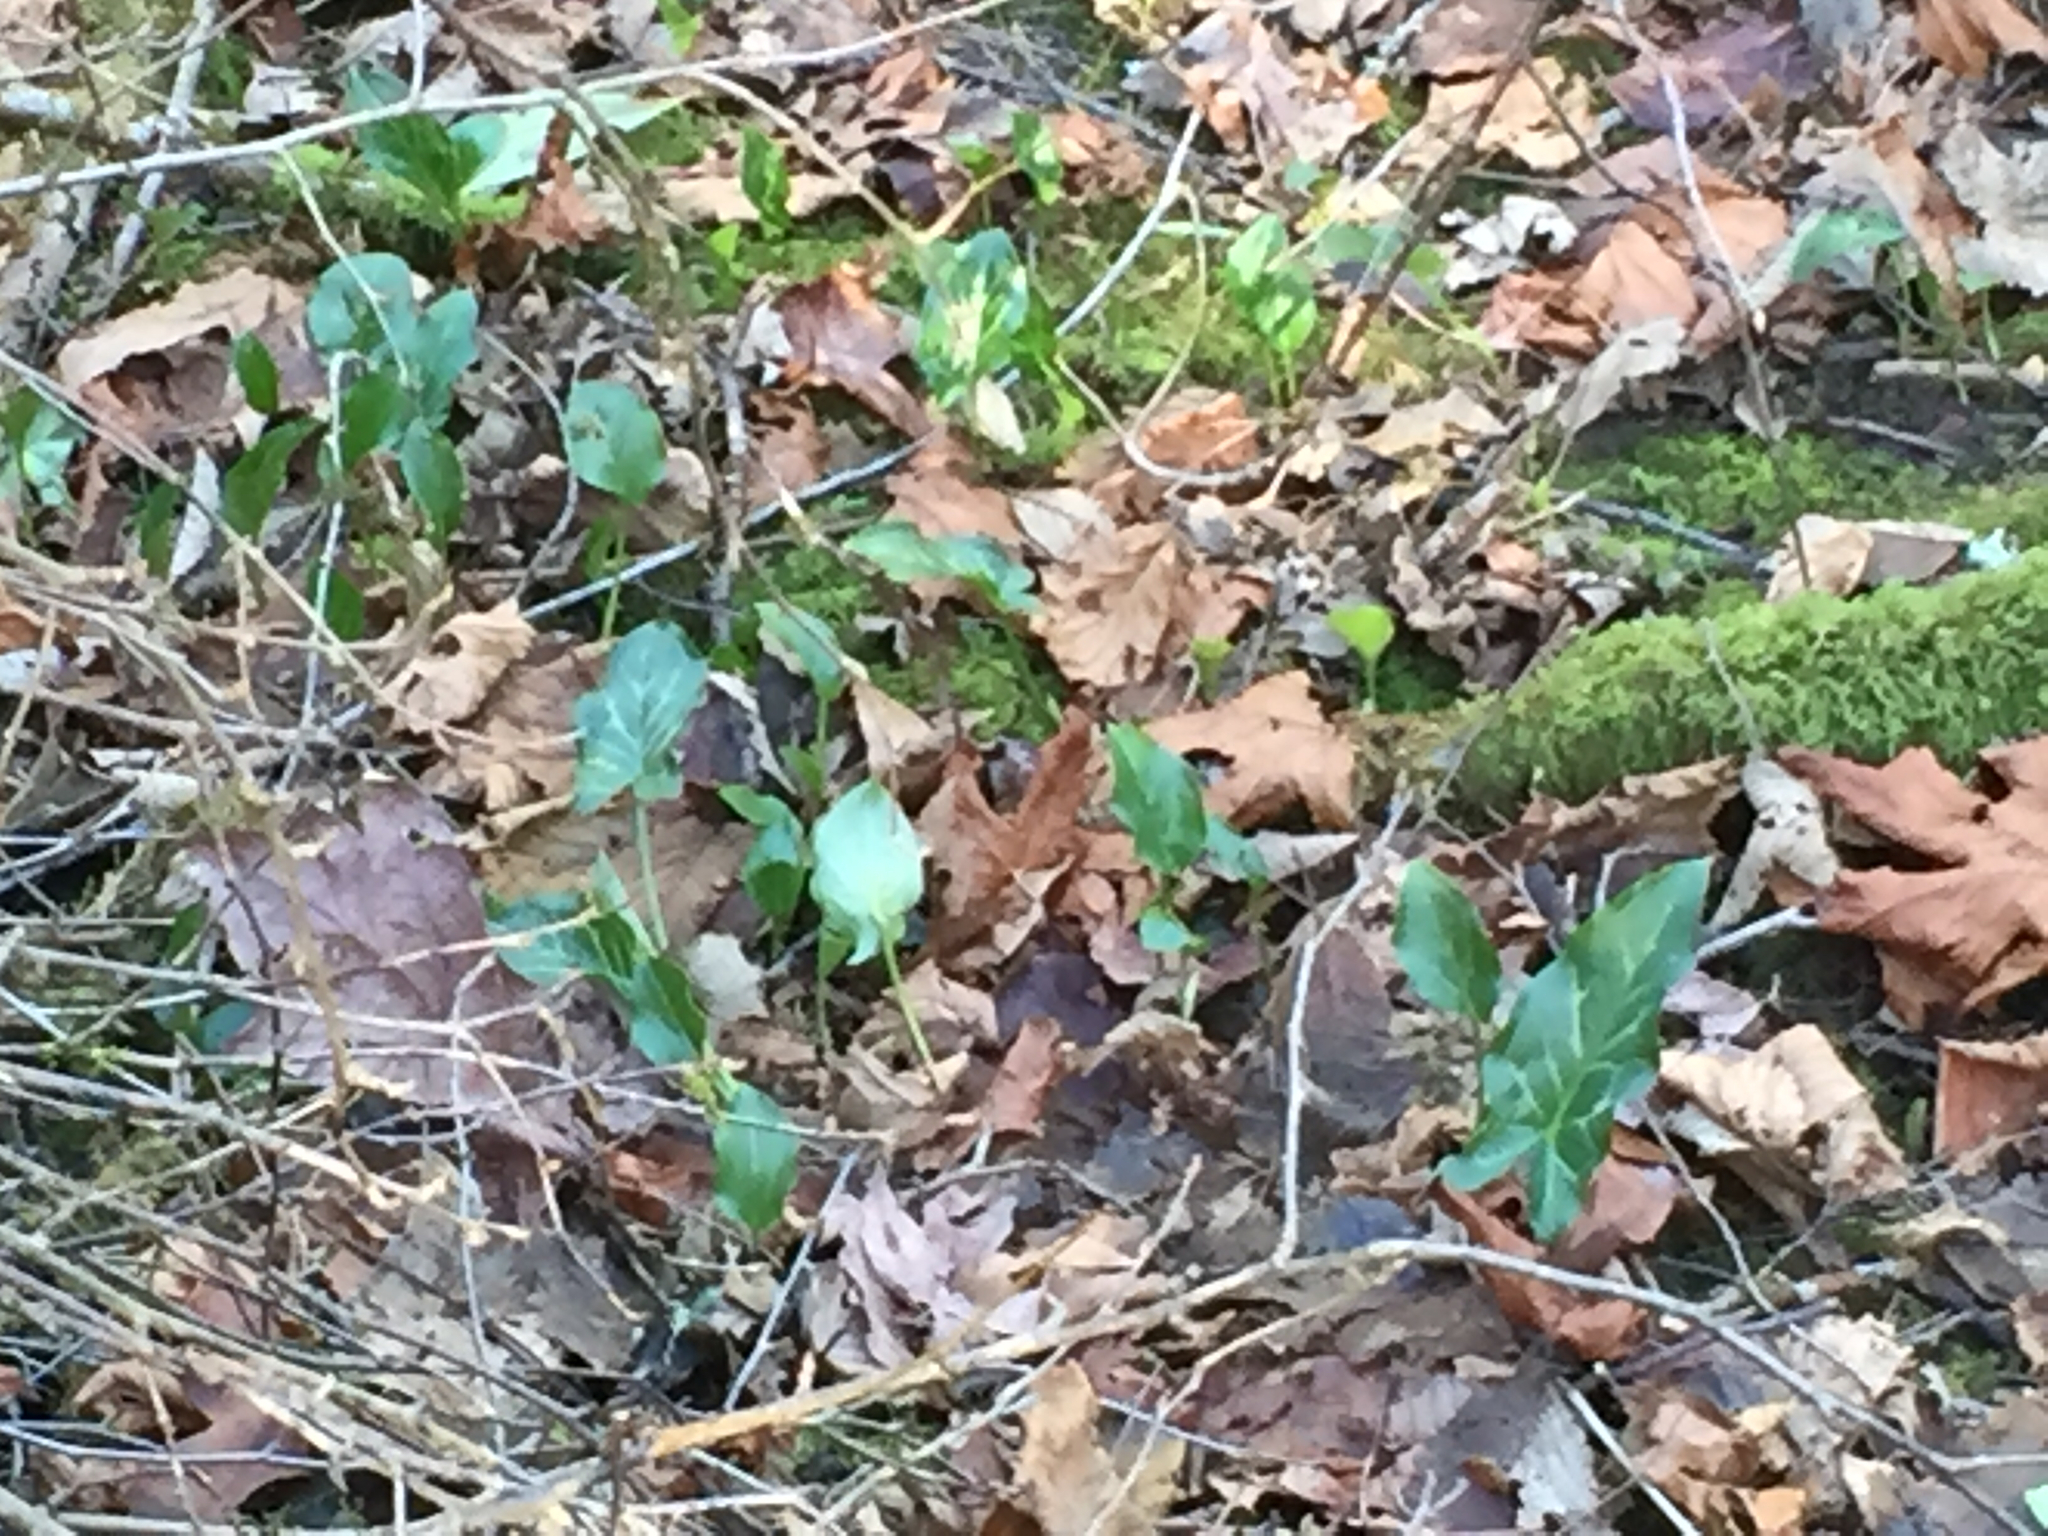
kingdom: Plantae
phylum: Tracheophyta
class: Liliopsida
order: Alismatales
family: Araceae
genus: Arum
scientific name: Arum italicum
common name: Italian lords-and-ladies
